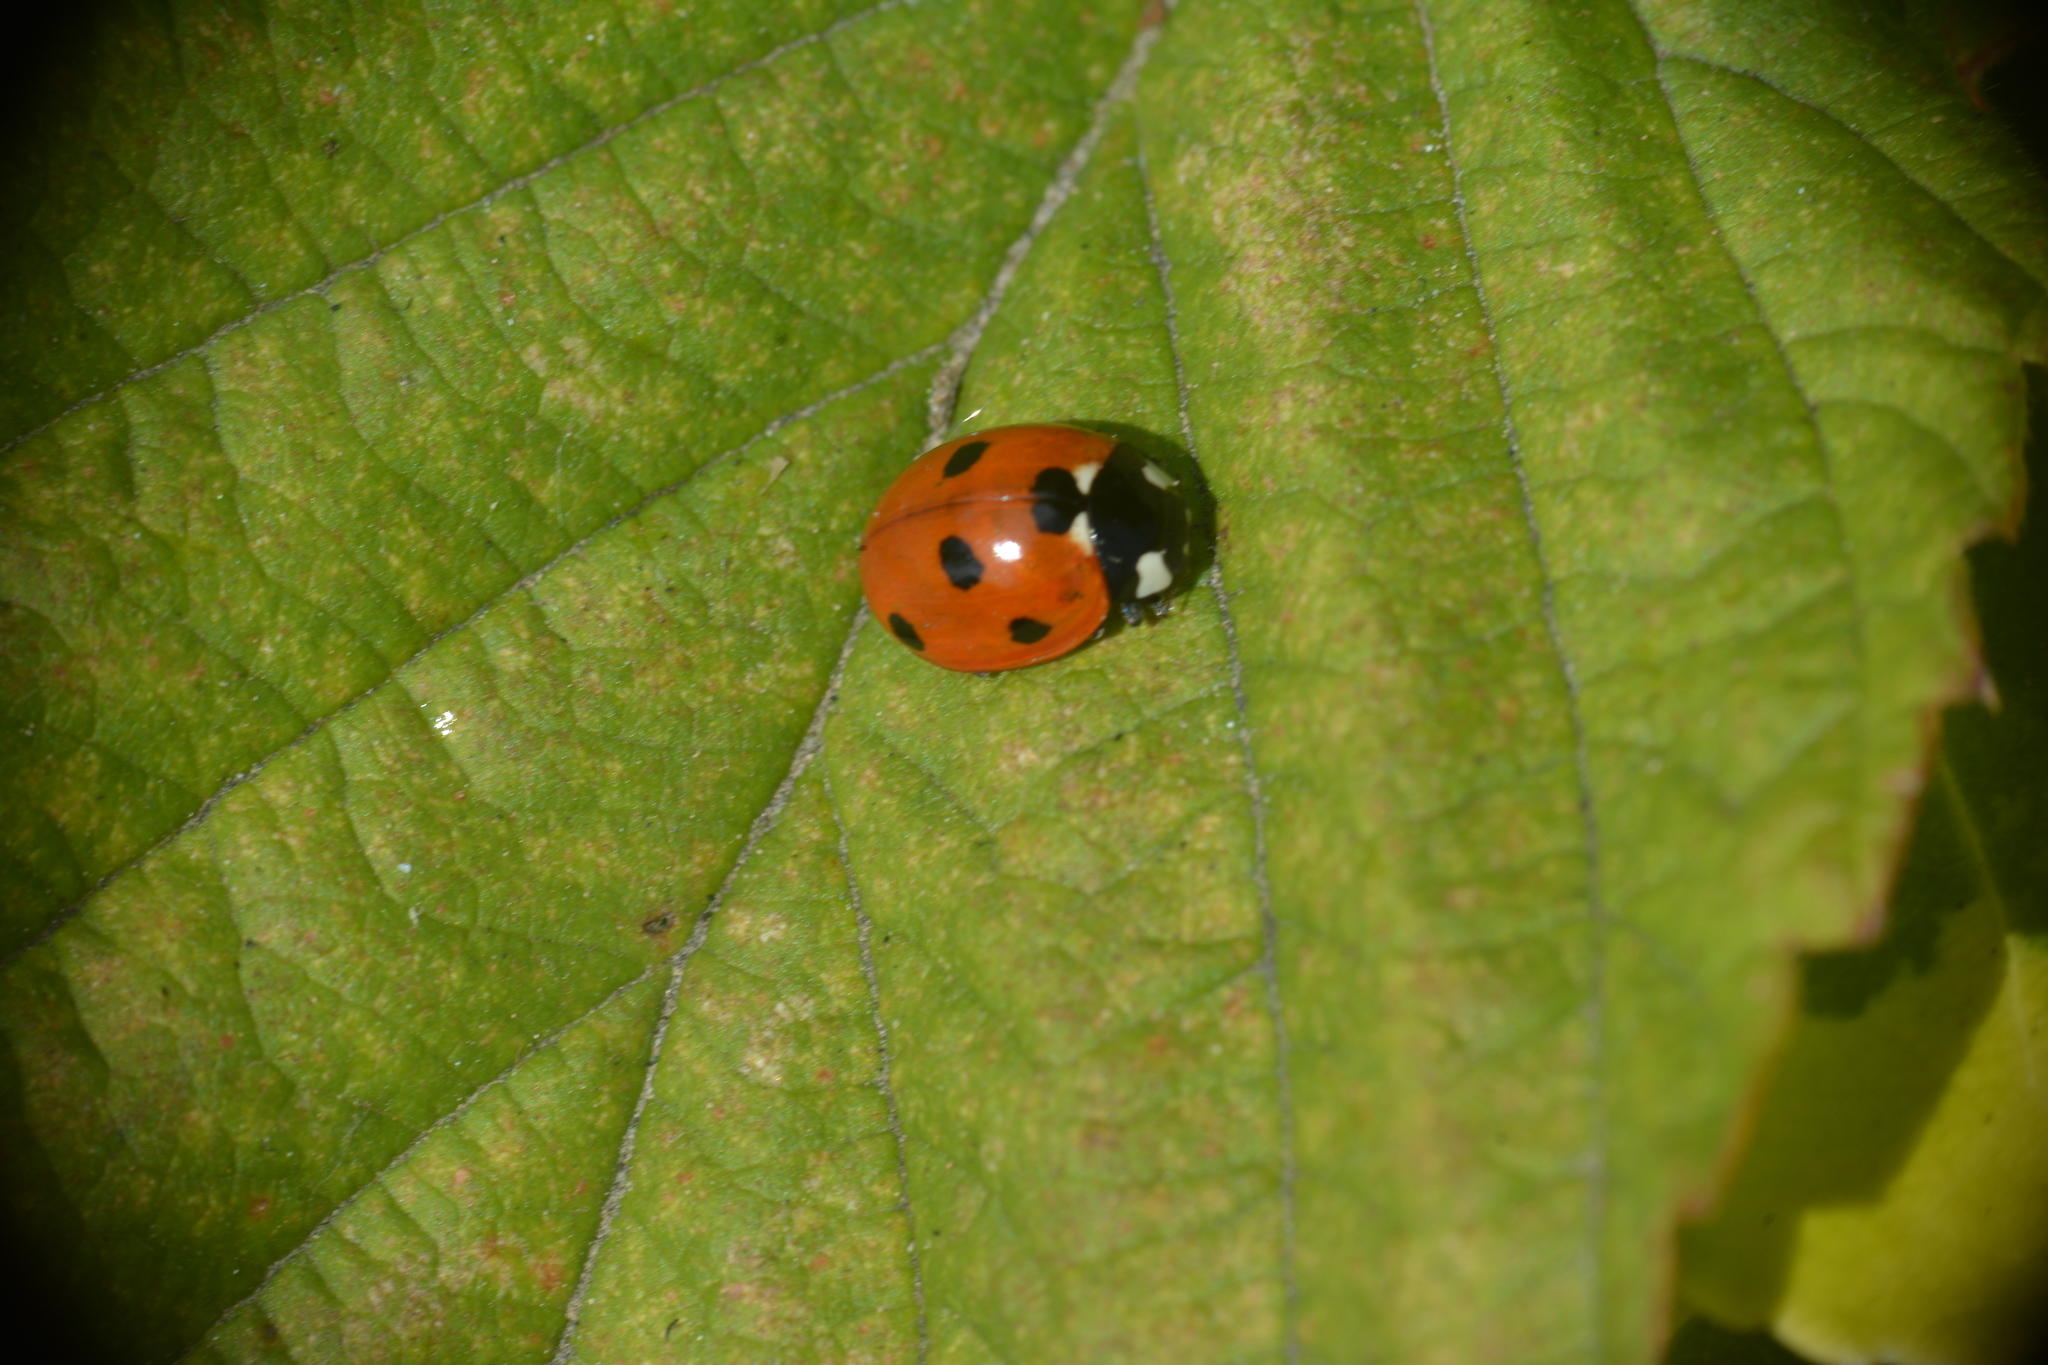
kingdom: Animalia
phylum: Arthropoda
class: Insecta
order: Coleoptera
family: Coccinellidae
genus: Coccinella
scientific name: Coccinella septempunctata
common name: Sevenspotted lady beetle
